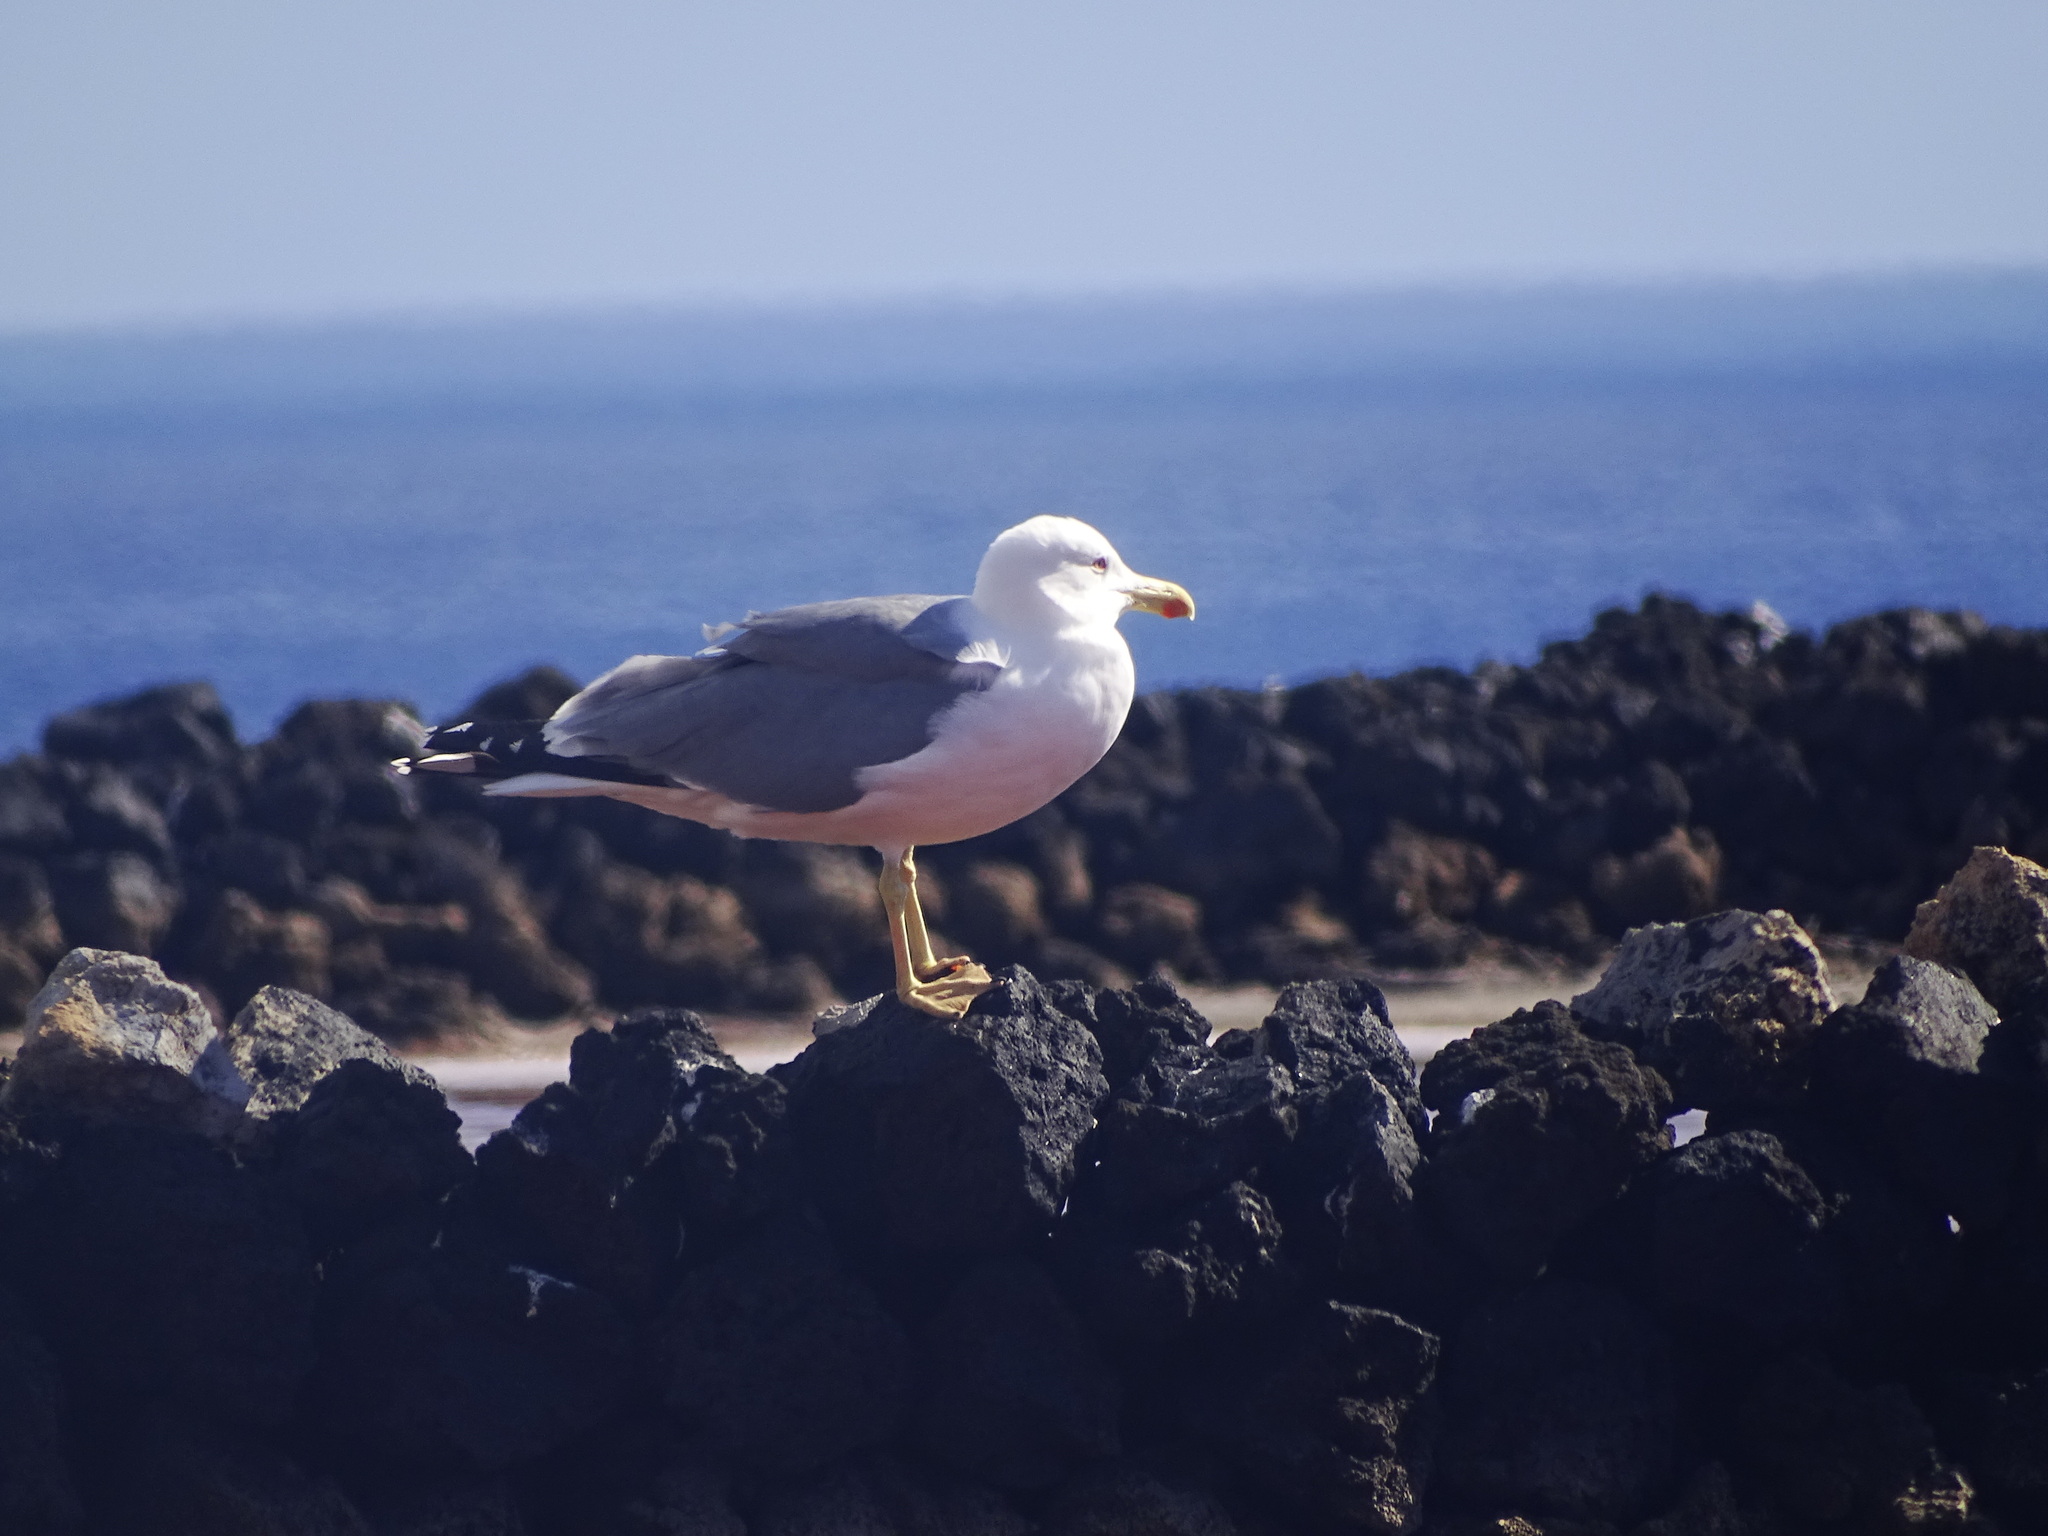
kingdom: Animalia
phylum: Chordata
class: Aves
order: Charadriiformes
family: Laridae
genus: Larus
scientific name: Larus michahellis
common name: Yellow-legged gull
